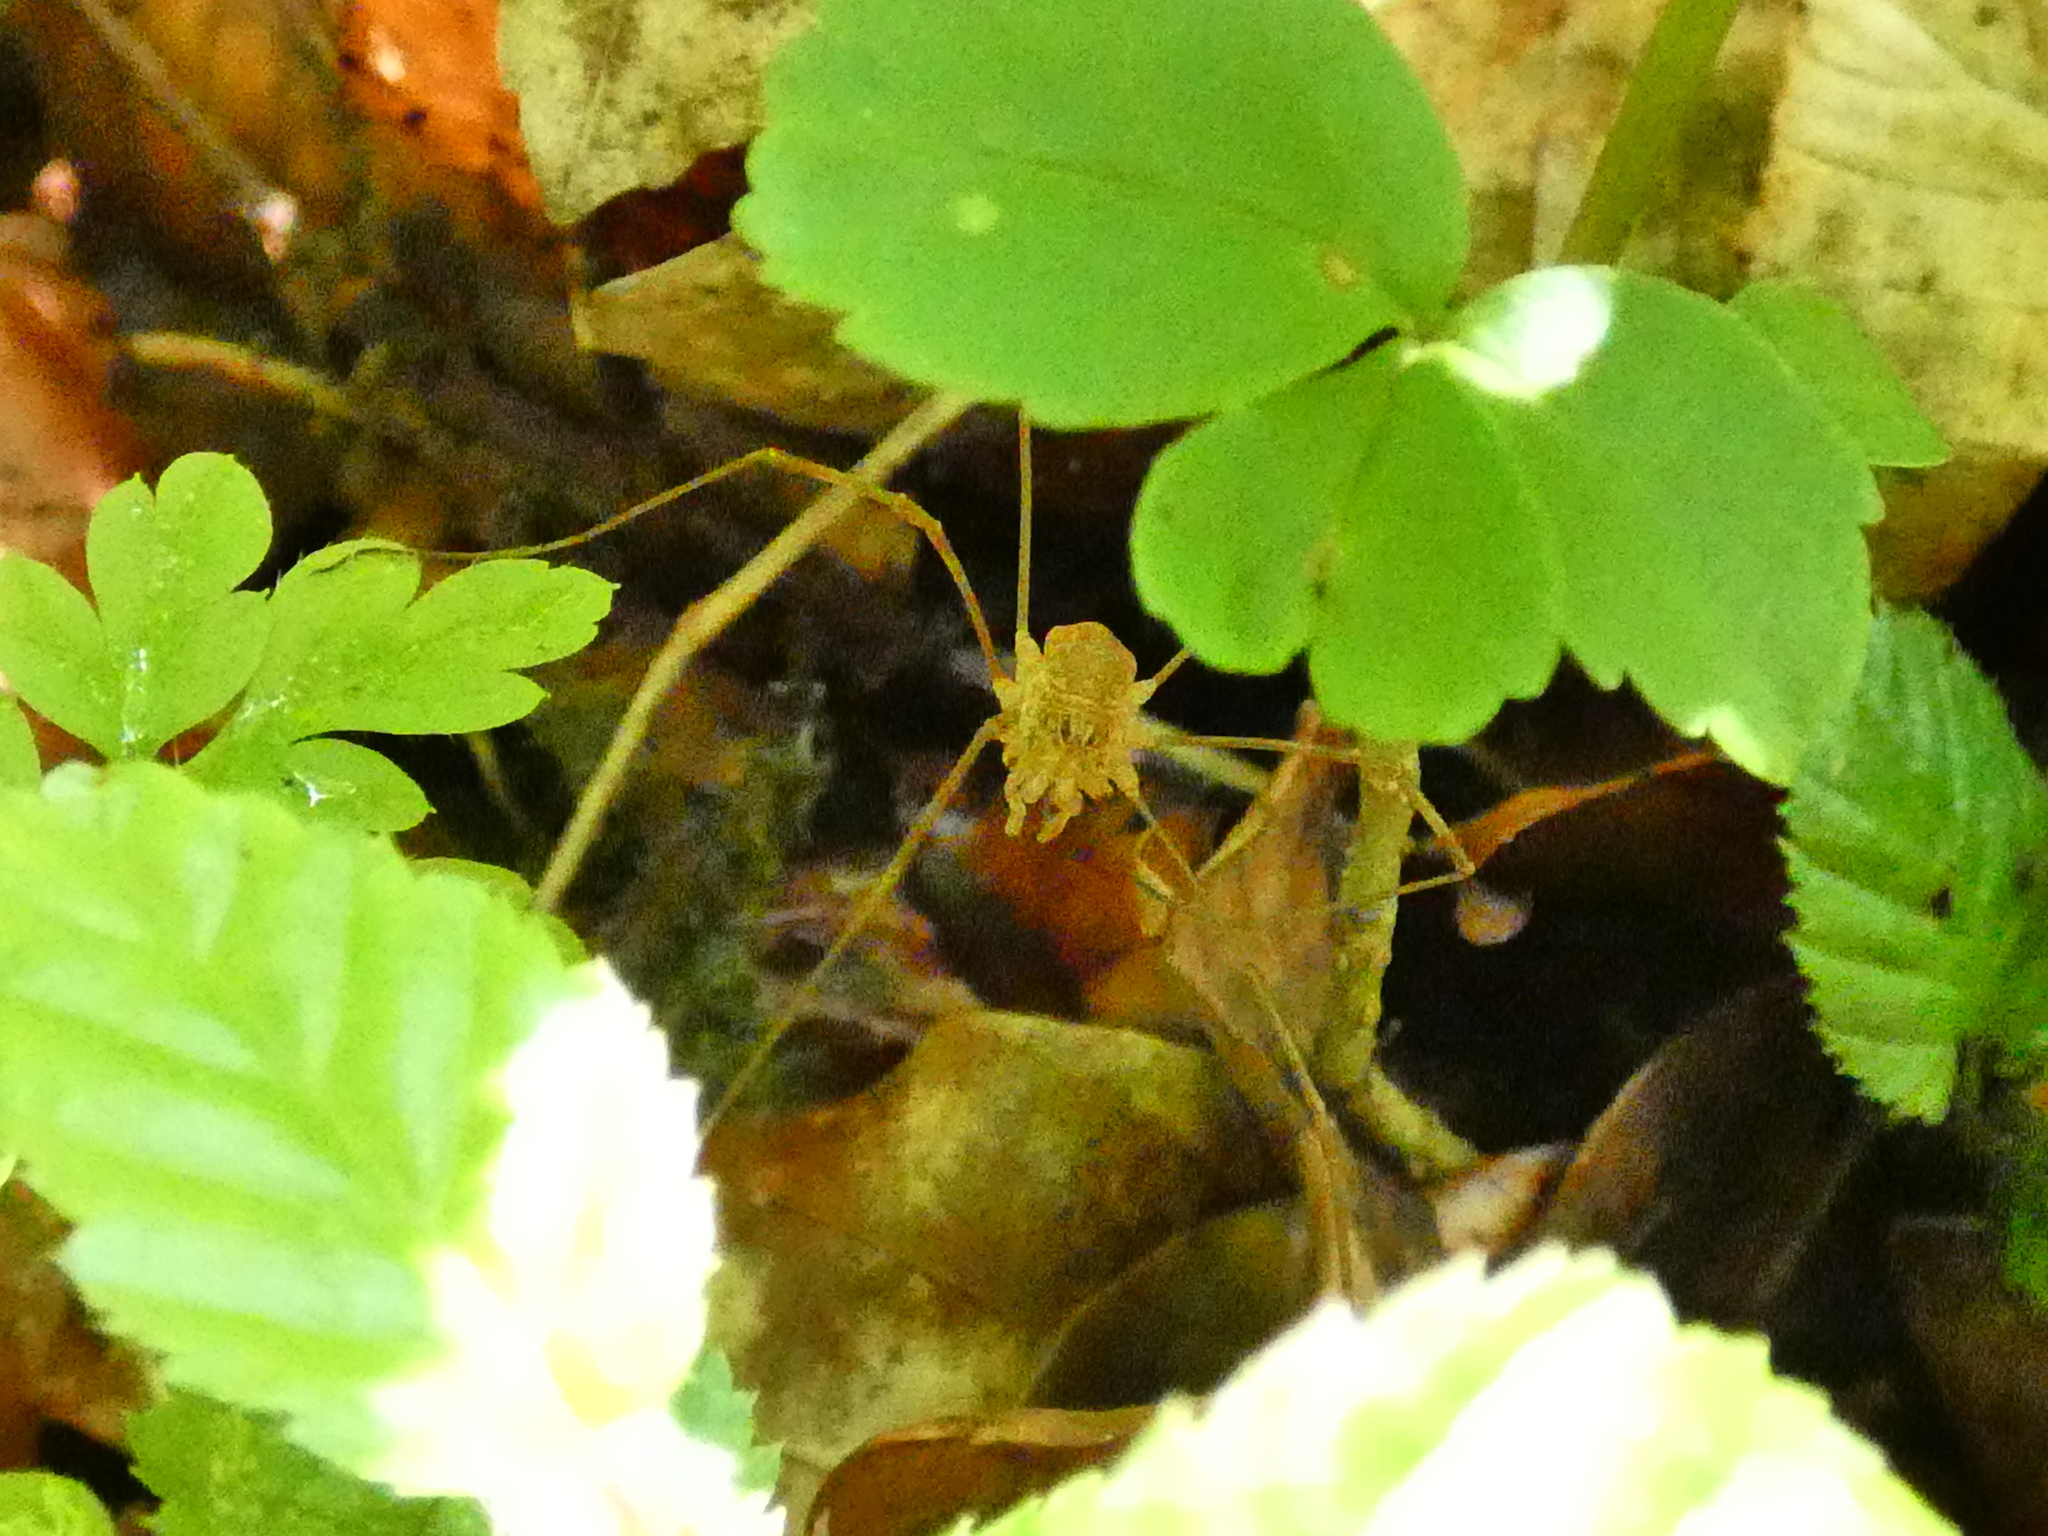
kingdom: Animalia
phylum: Arthropoda
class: Arachnida
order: Opiliones
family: Phalangiidae
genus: Rilaena
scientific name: Rilaena triangularis
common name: Spring harvestman
